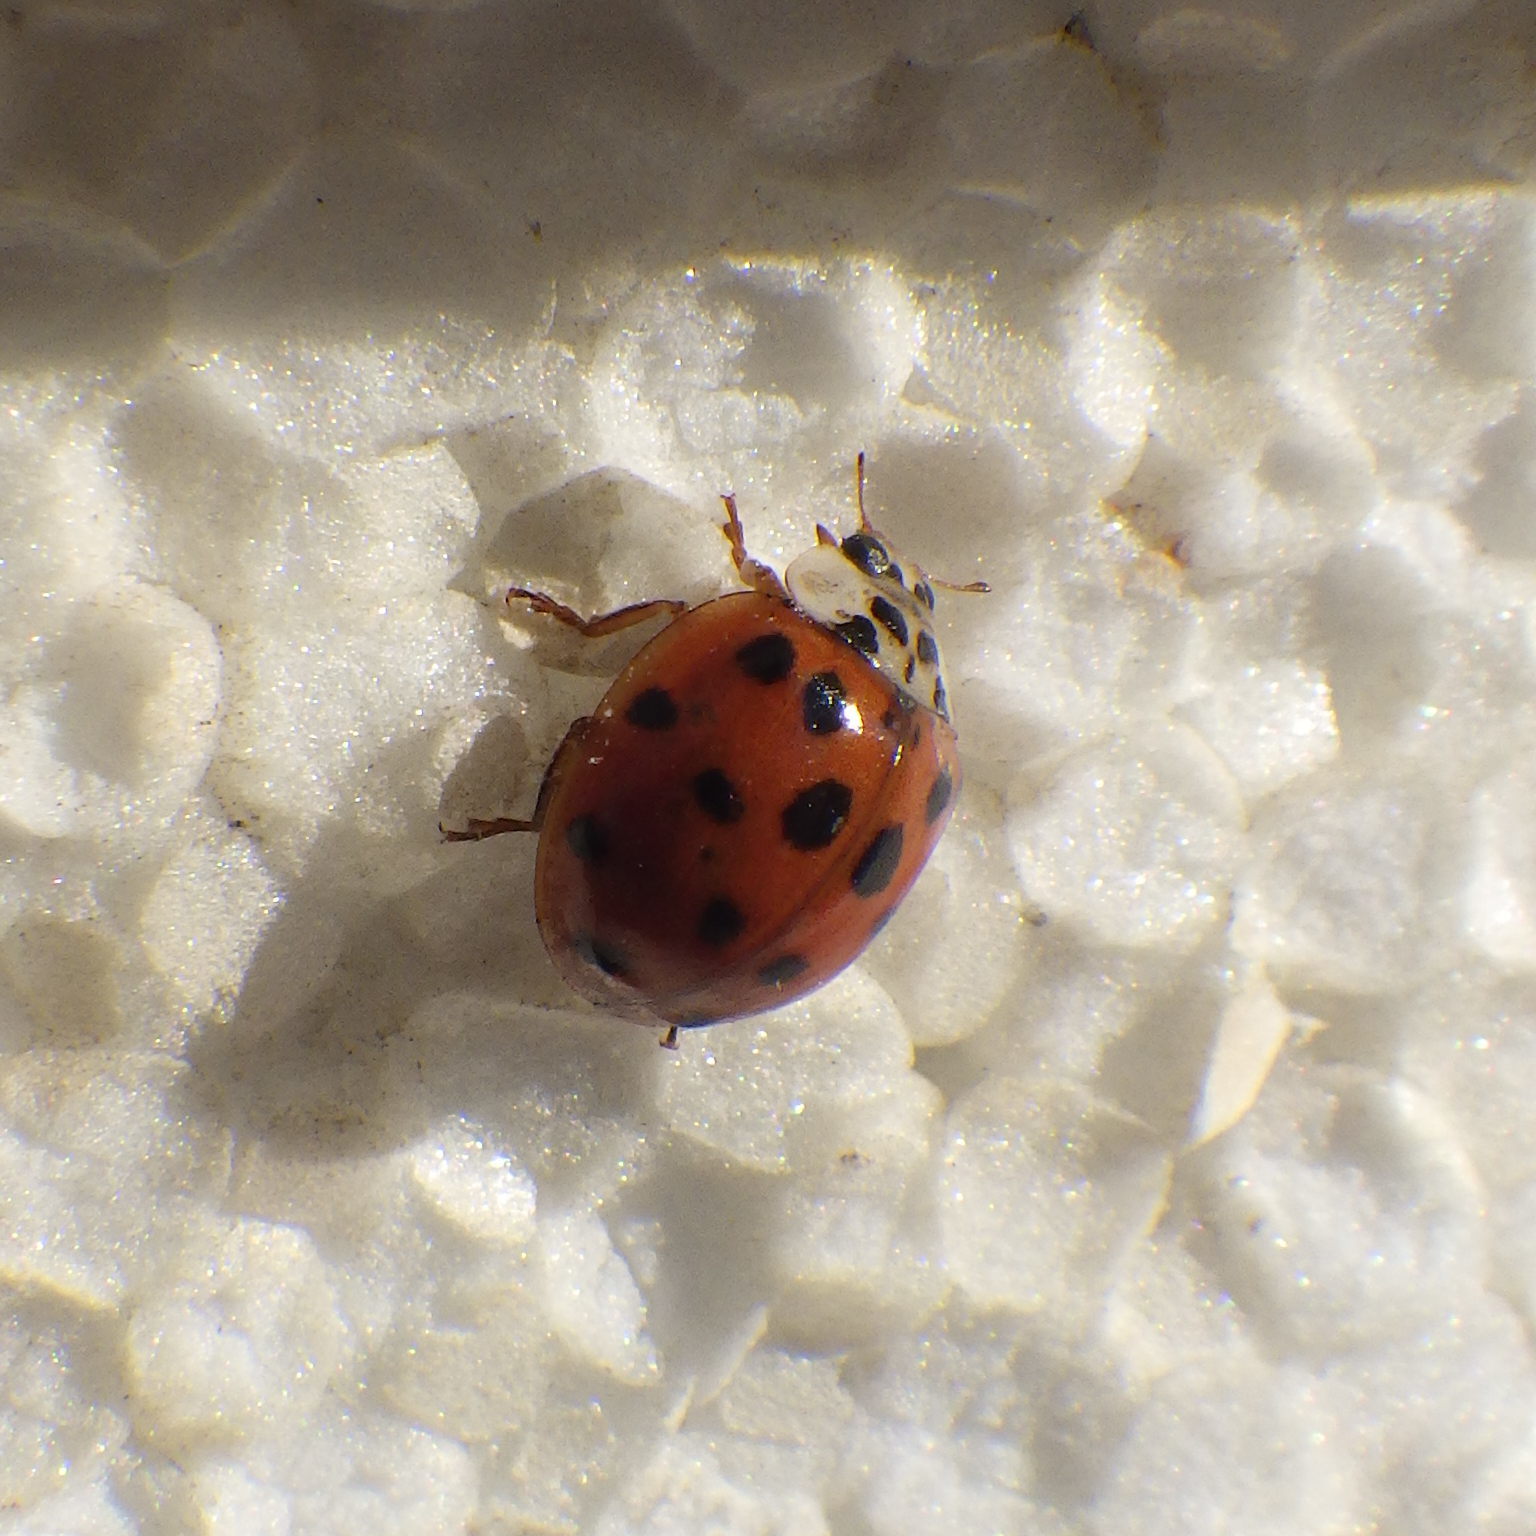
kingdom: Animalia
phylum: Arthropoda
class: Insecta
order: Coleoptera
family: Coccinellidae
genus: Harmonia
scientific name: Harmonia axyridis
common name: Harlequin ladybird
